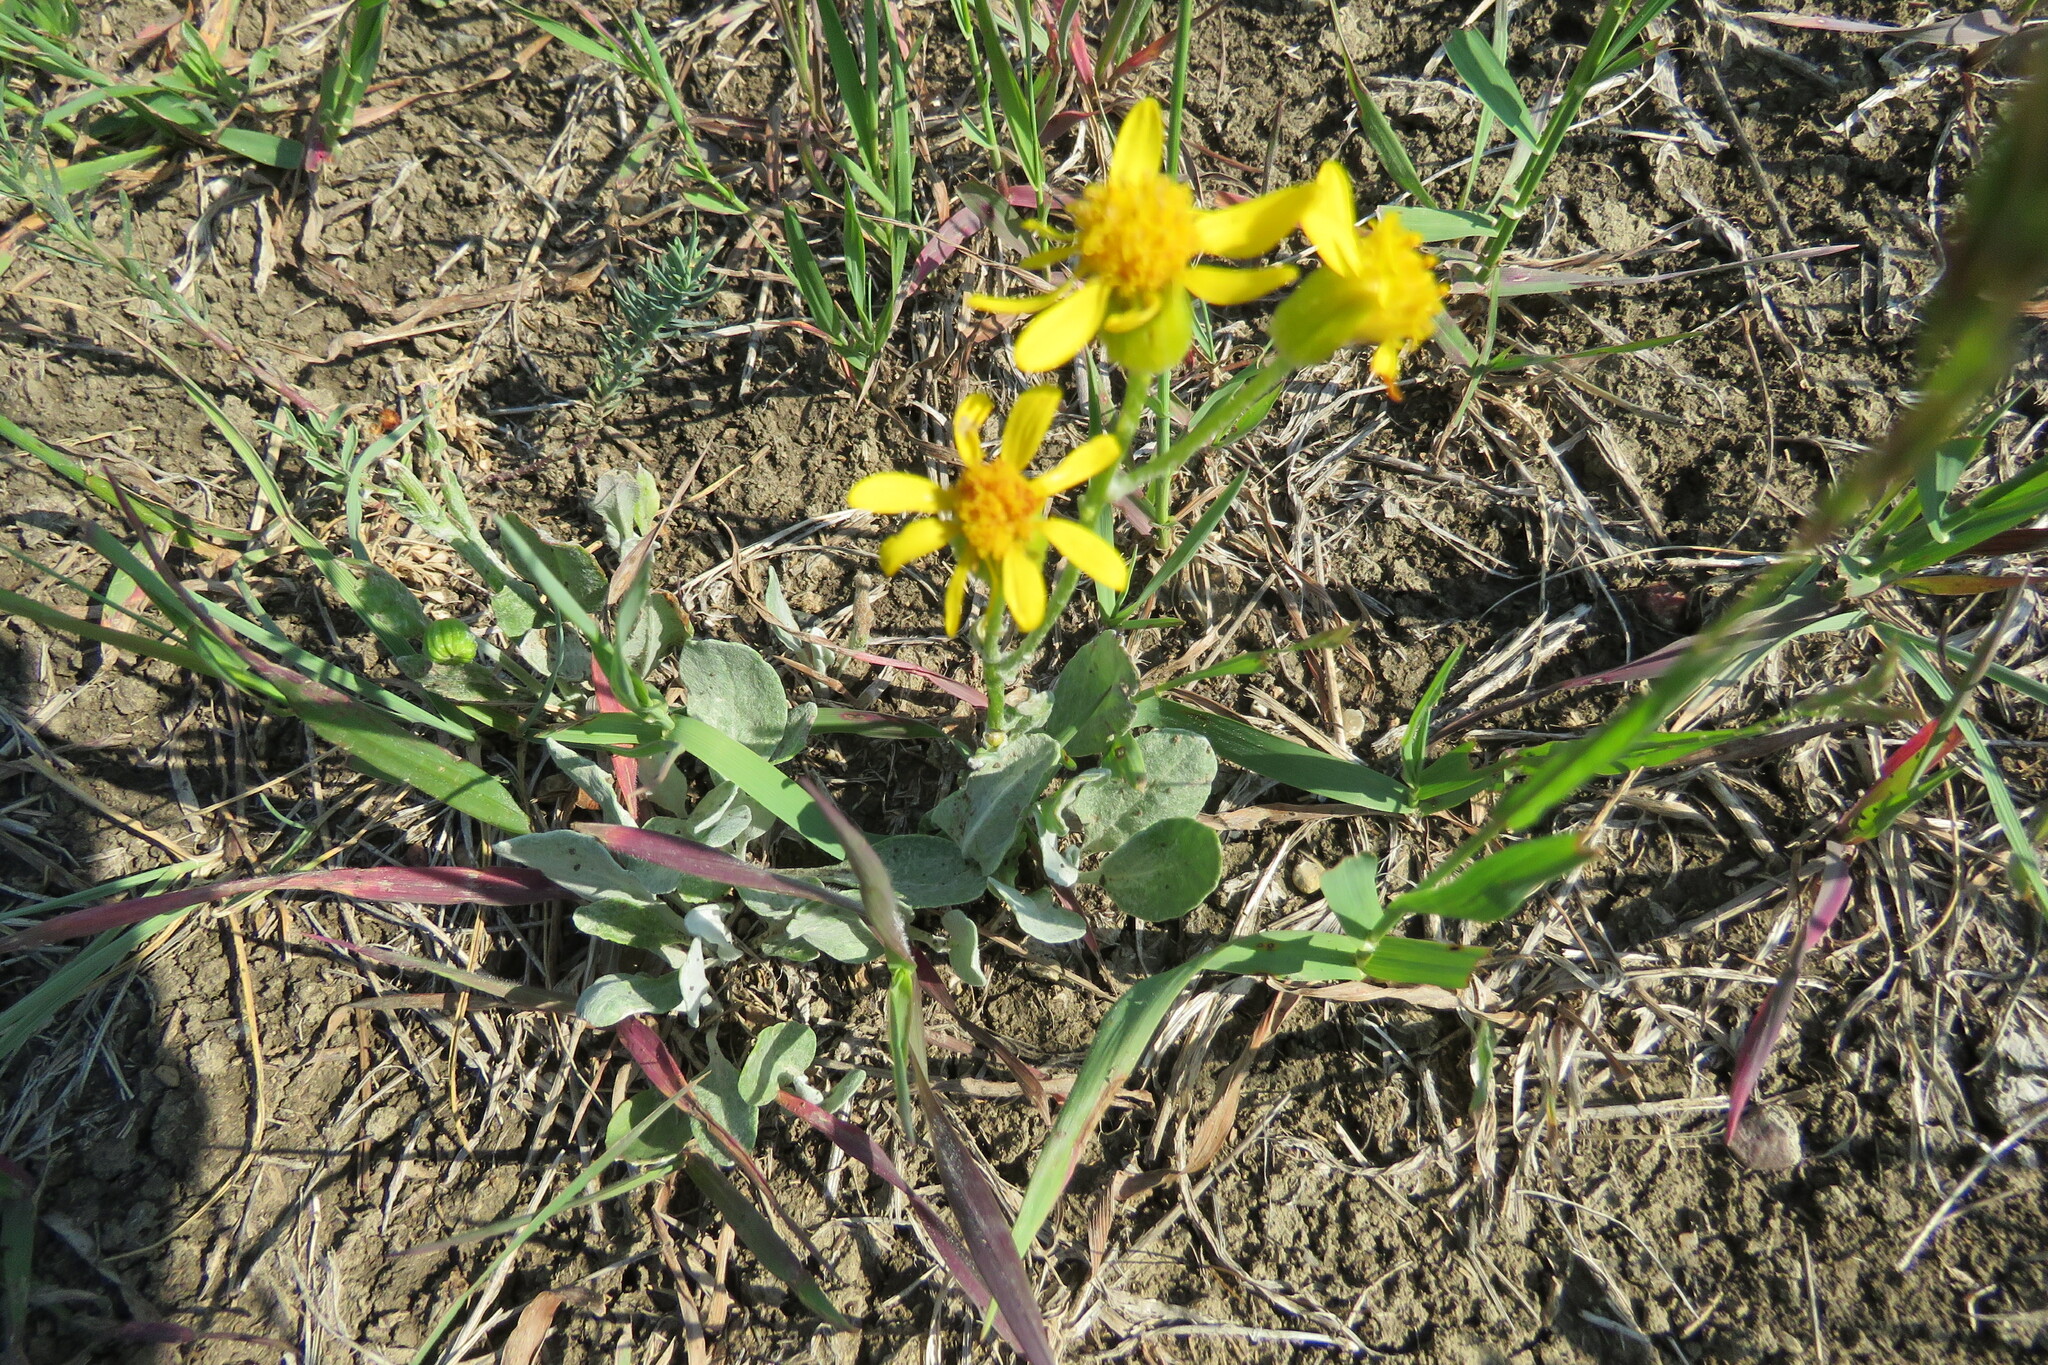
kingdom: Plantae
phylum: Tracheophyta
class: Magnoliopsida
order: Asterales
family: Asteraceae
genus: Packera
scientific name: Packera cana
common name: Woolly groundsel
